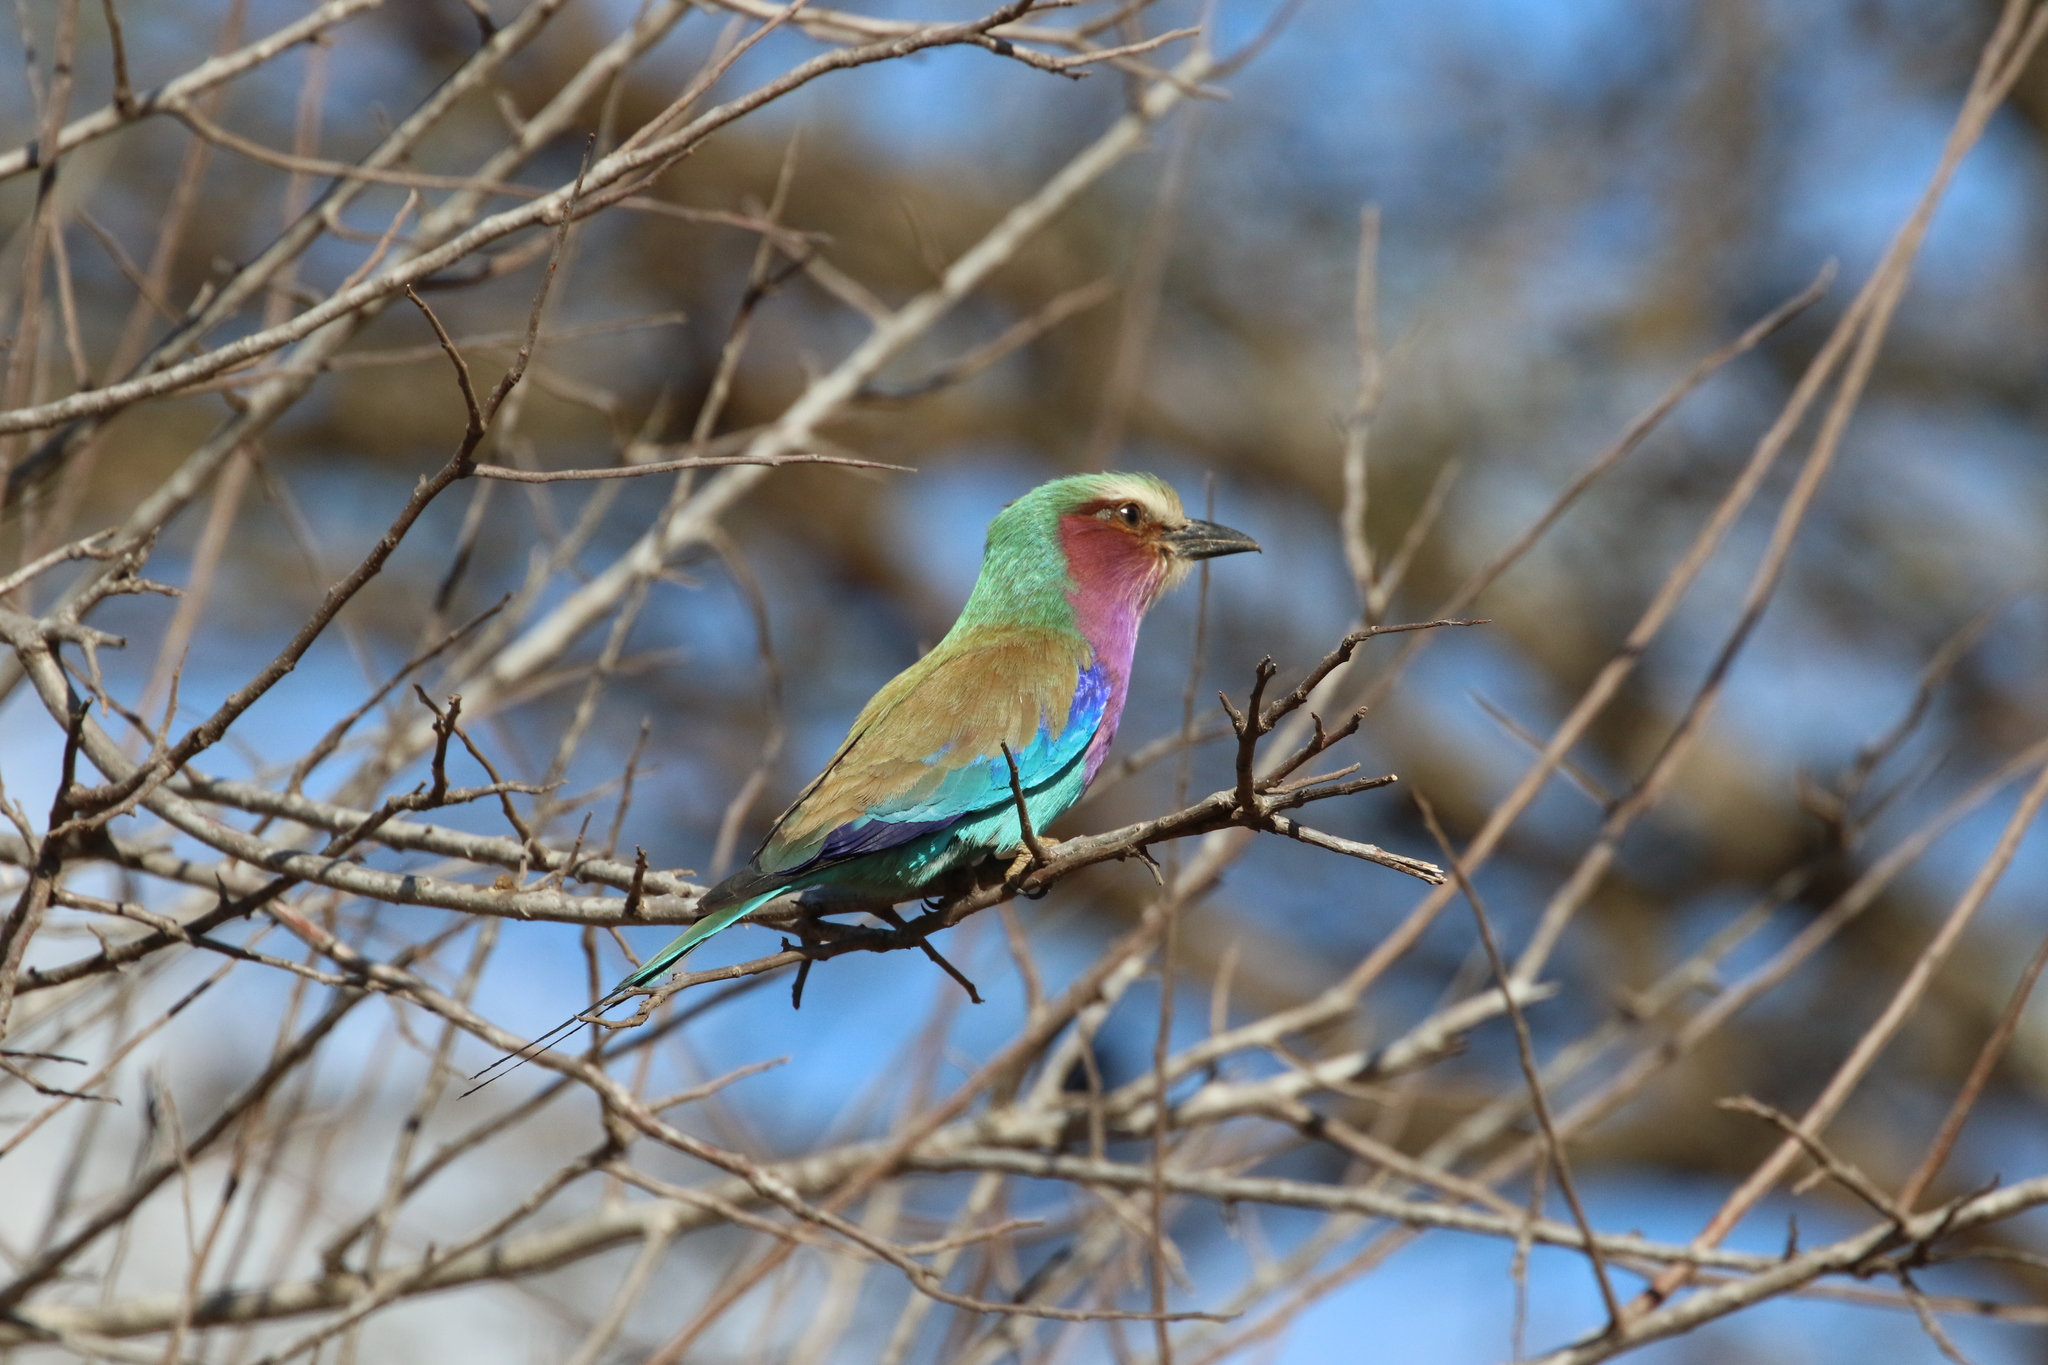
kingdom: Animalia
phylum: Chordata
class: Aves
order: Coraciiformes
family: Coraciidae
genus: Coracias
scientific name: Coracias caudatus
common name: Lilac-breasted roller
